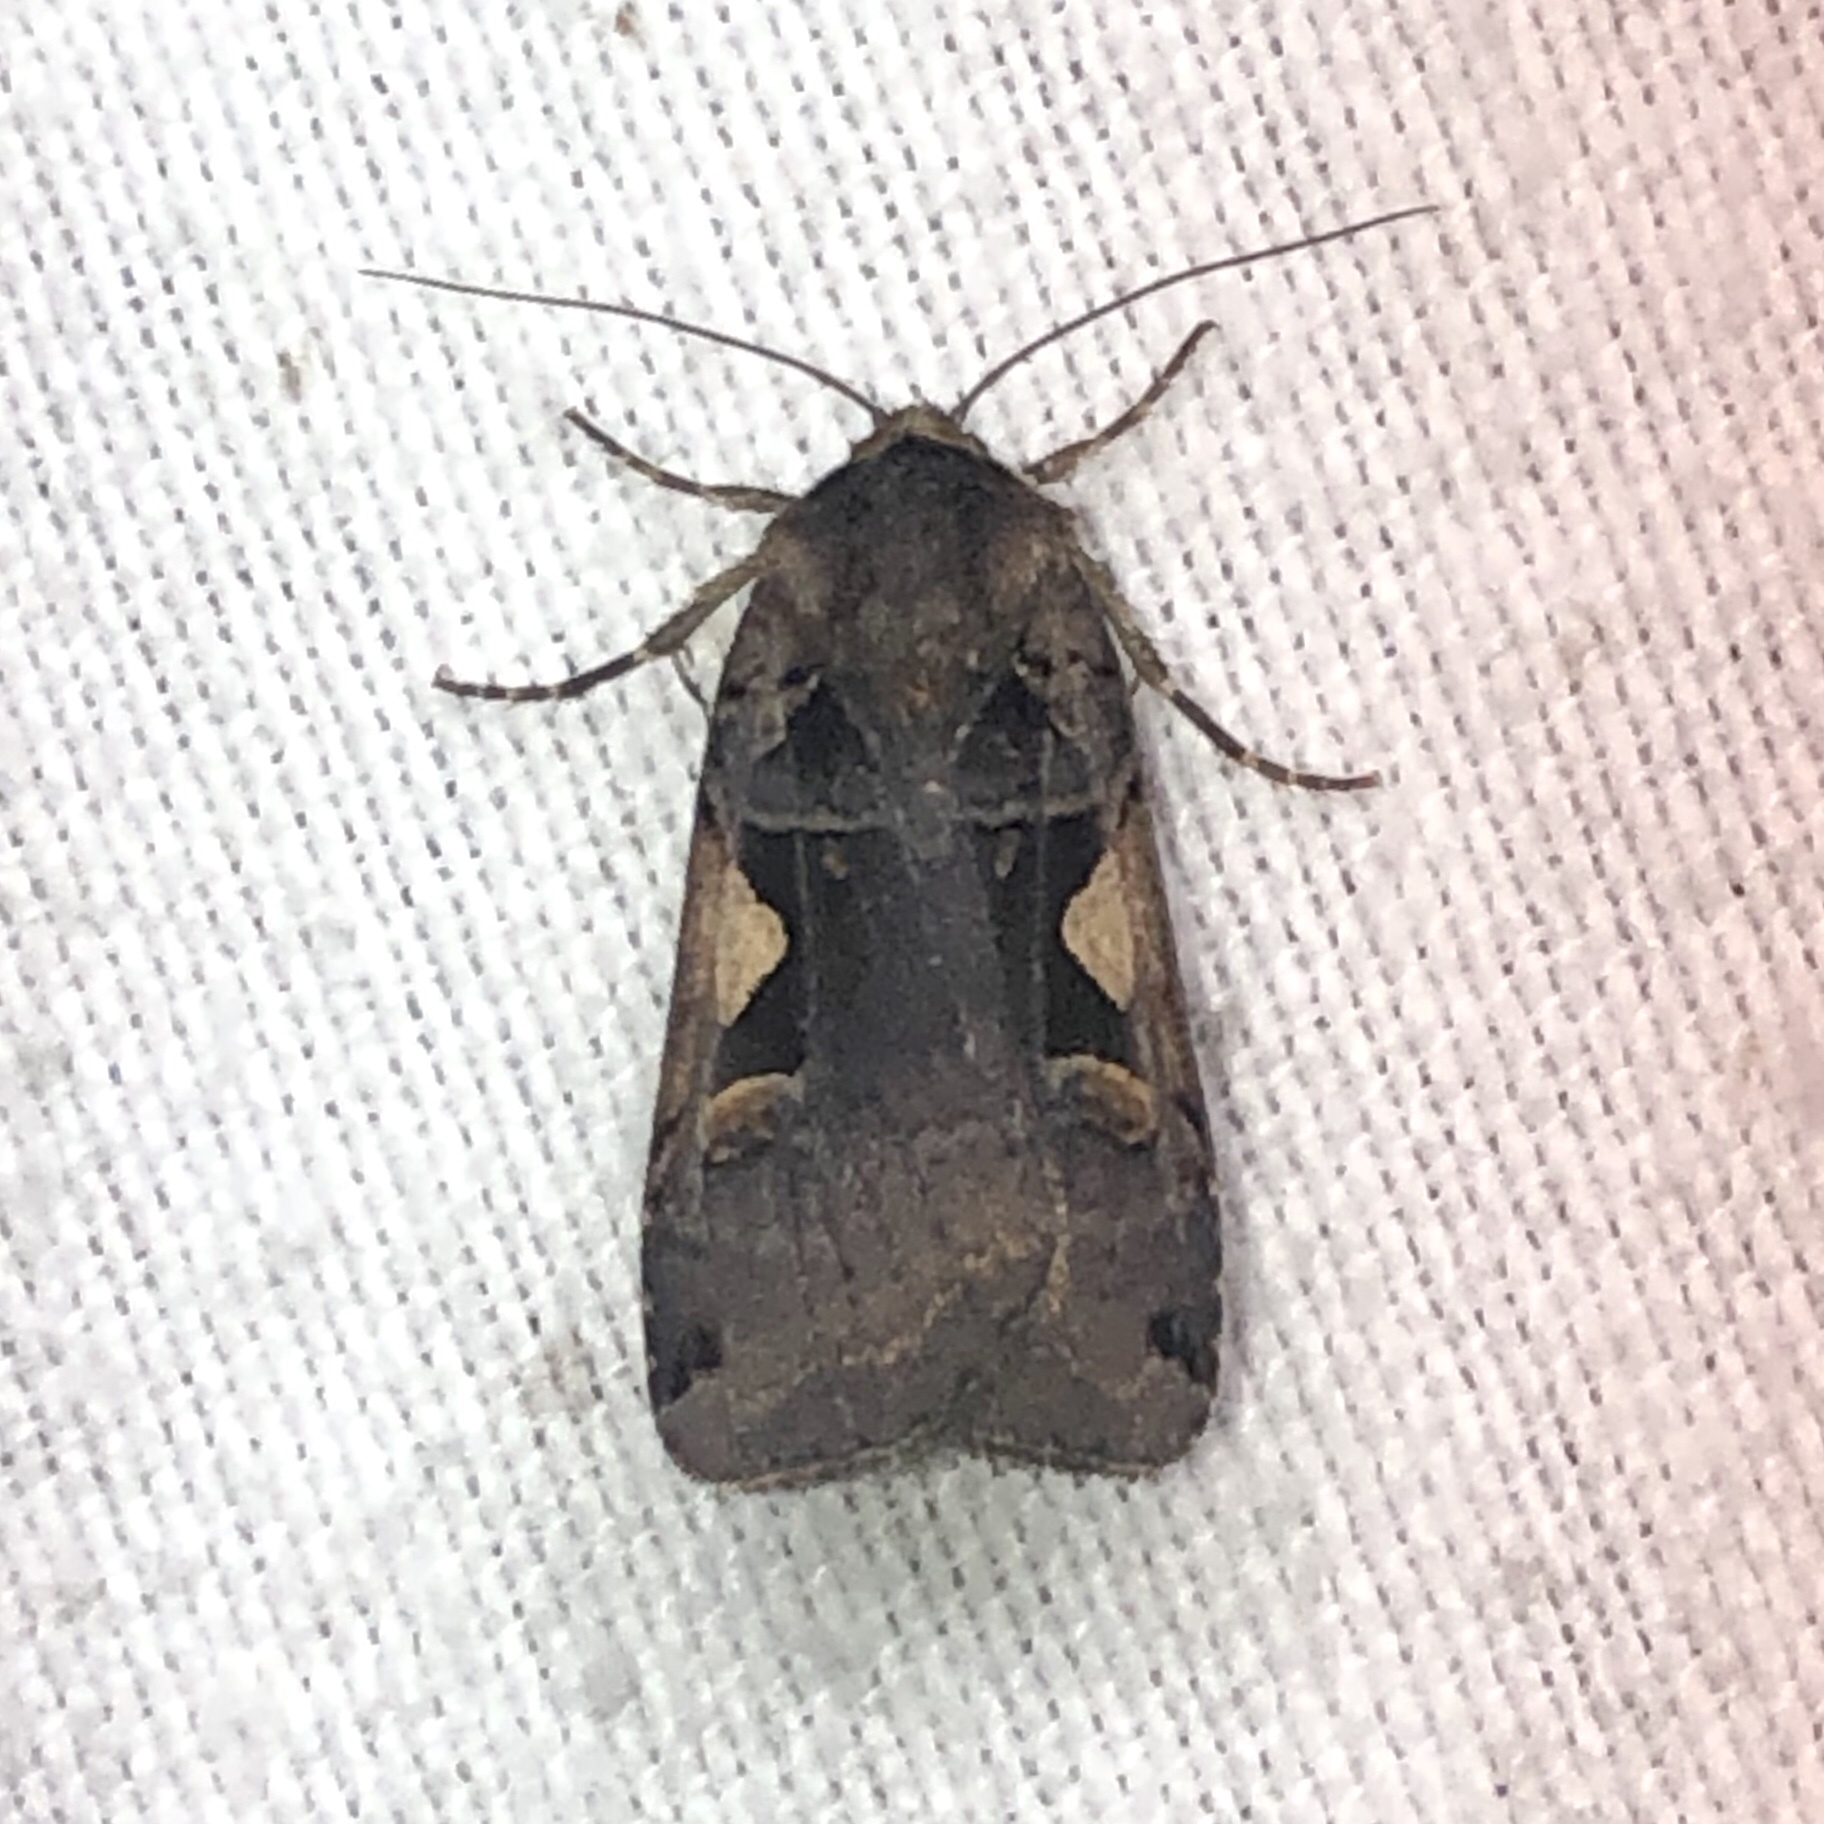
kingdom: Animalia
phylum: Arthropoda
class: Insecta
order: Lepidoptera
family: Noctuidae
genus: Xestia
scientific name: Xestia
